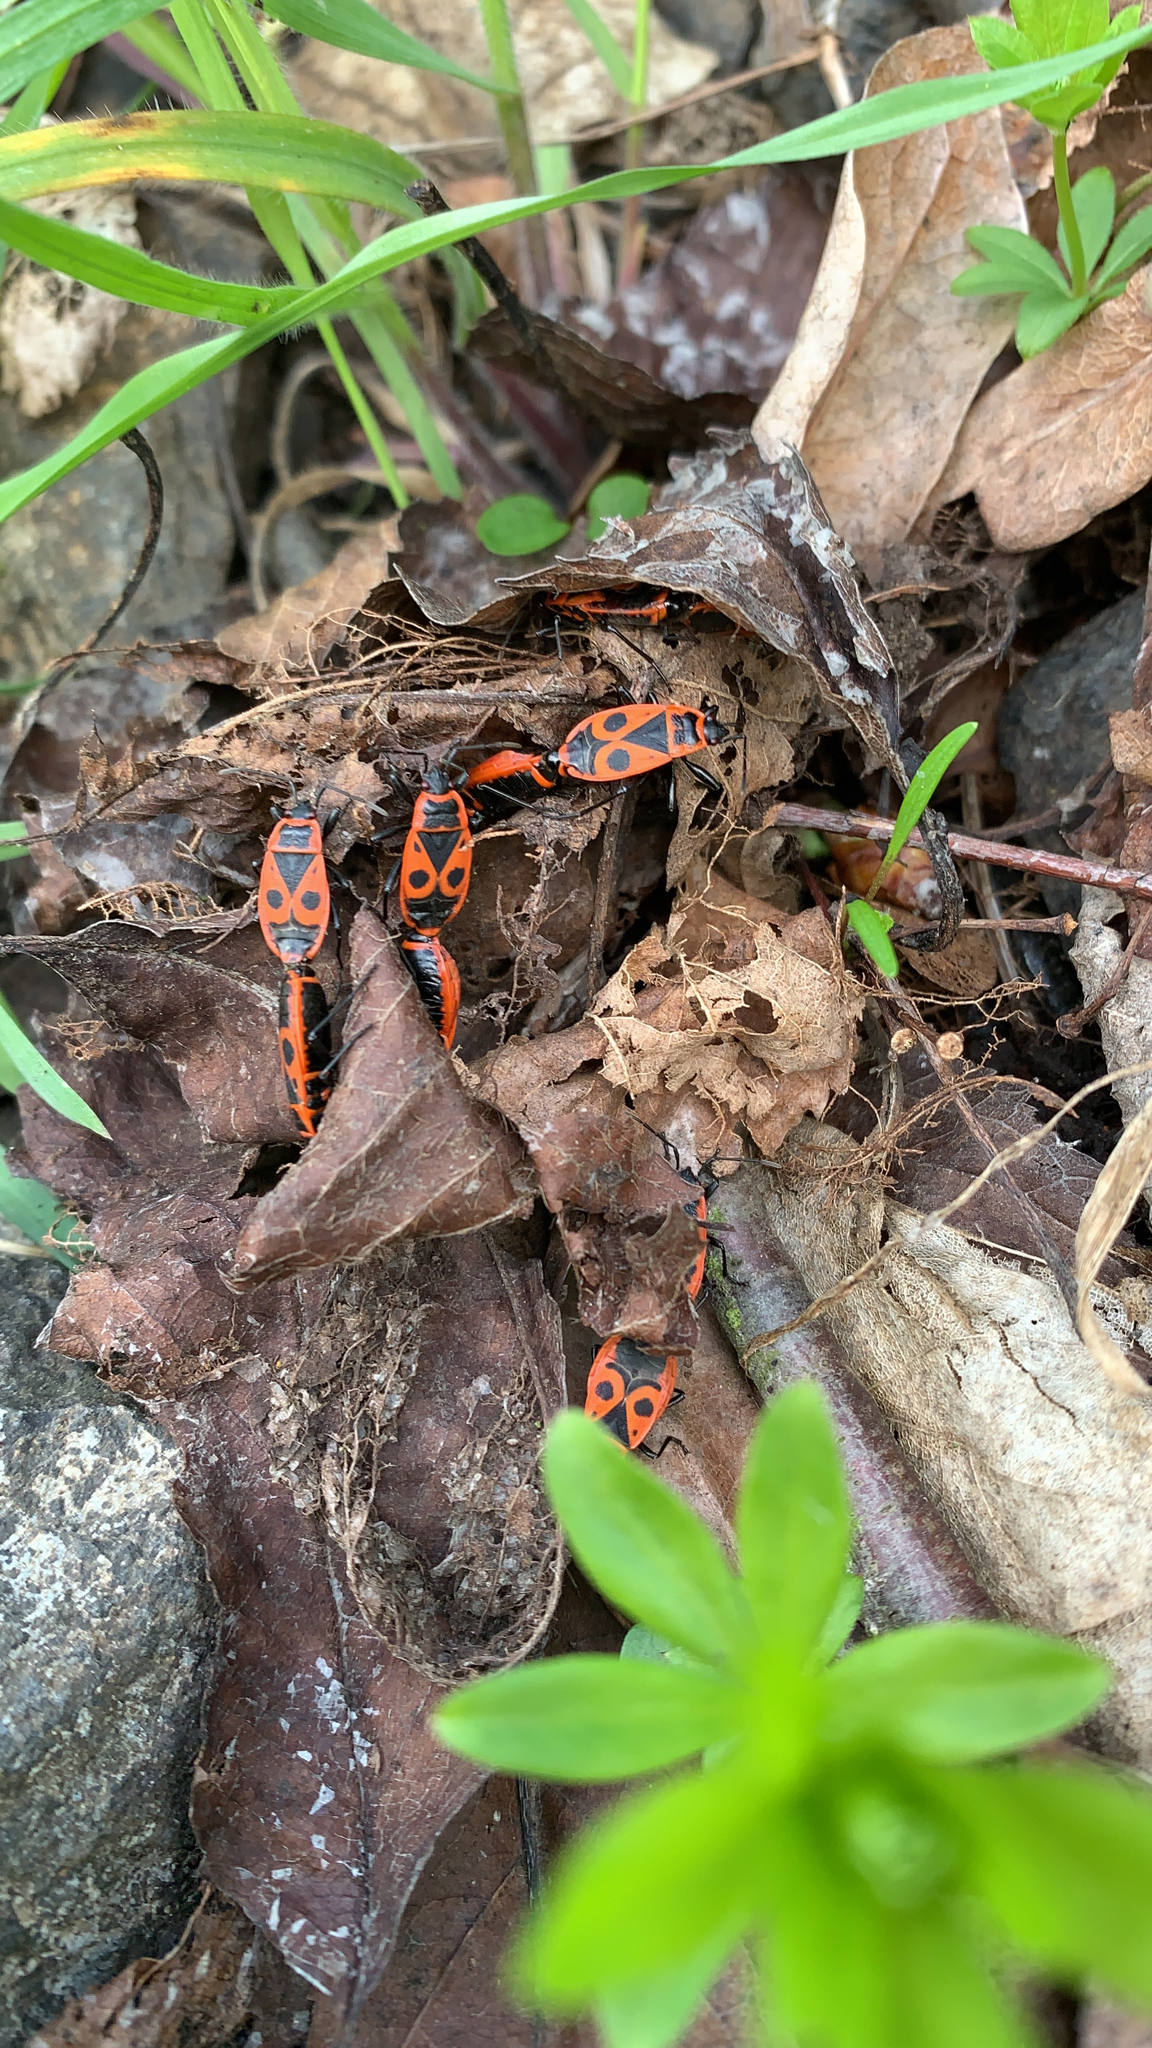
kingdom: Animalia
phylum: Arthropoda
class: Insecta
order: Hemiptera
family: Pyrrhocoridae
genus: Pyrrhocoris
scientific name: Pyrrhocoris apterus
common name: Firebug
